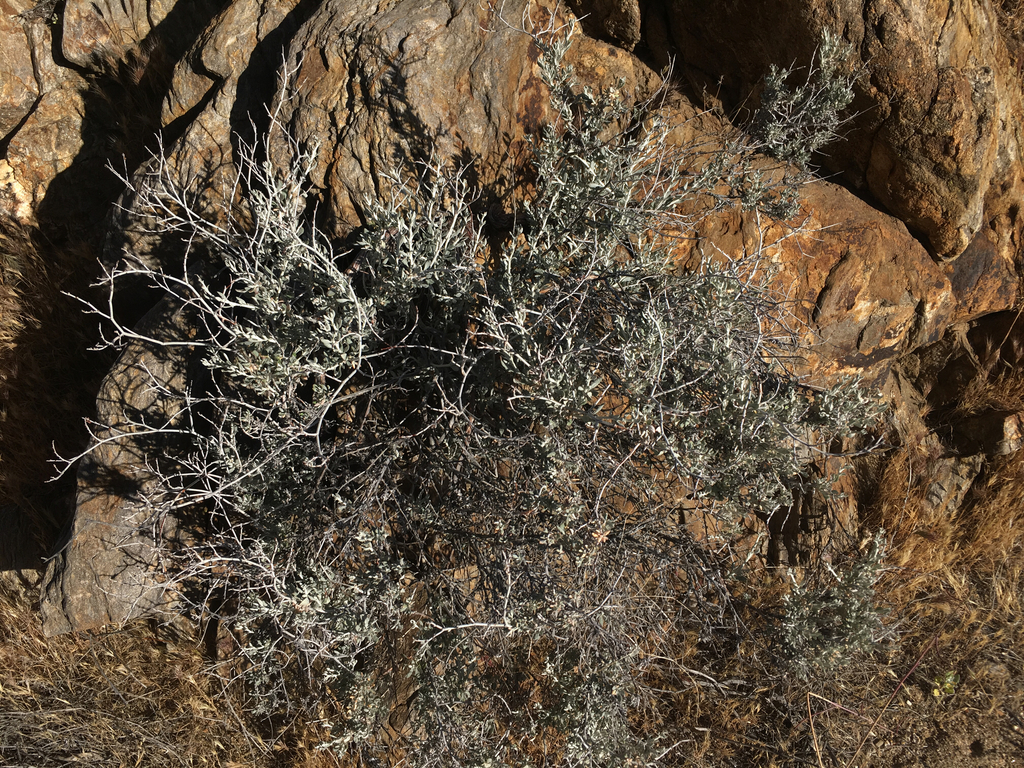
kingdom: Plantae
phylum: Tracheophyta
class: Magnoliopsida
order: Caryophyllales
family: Polygonaceae
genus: Eriogonum
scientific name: Eriogonum wrightii
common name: Bastard-sage
